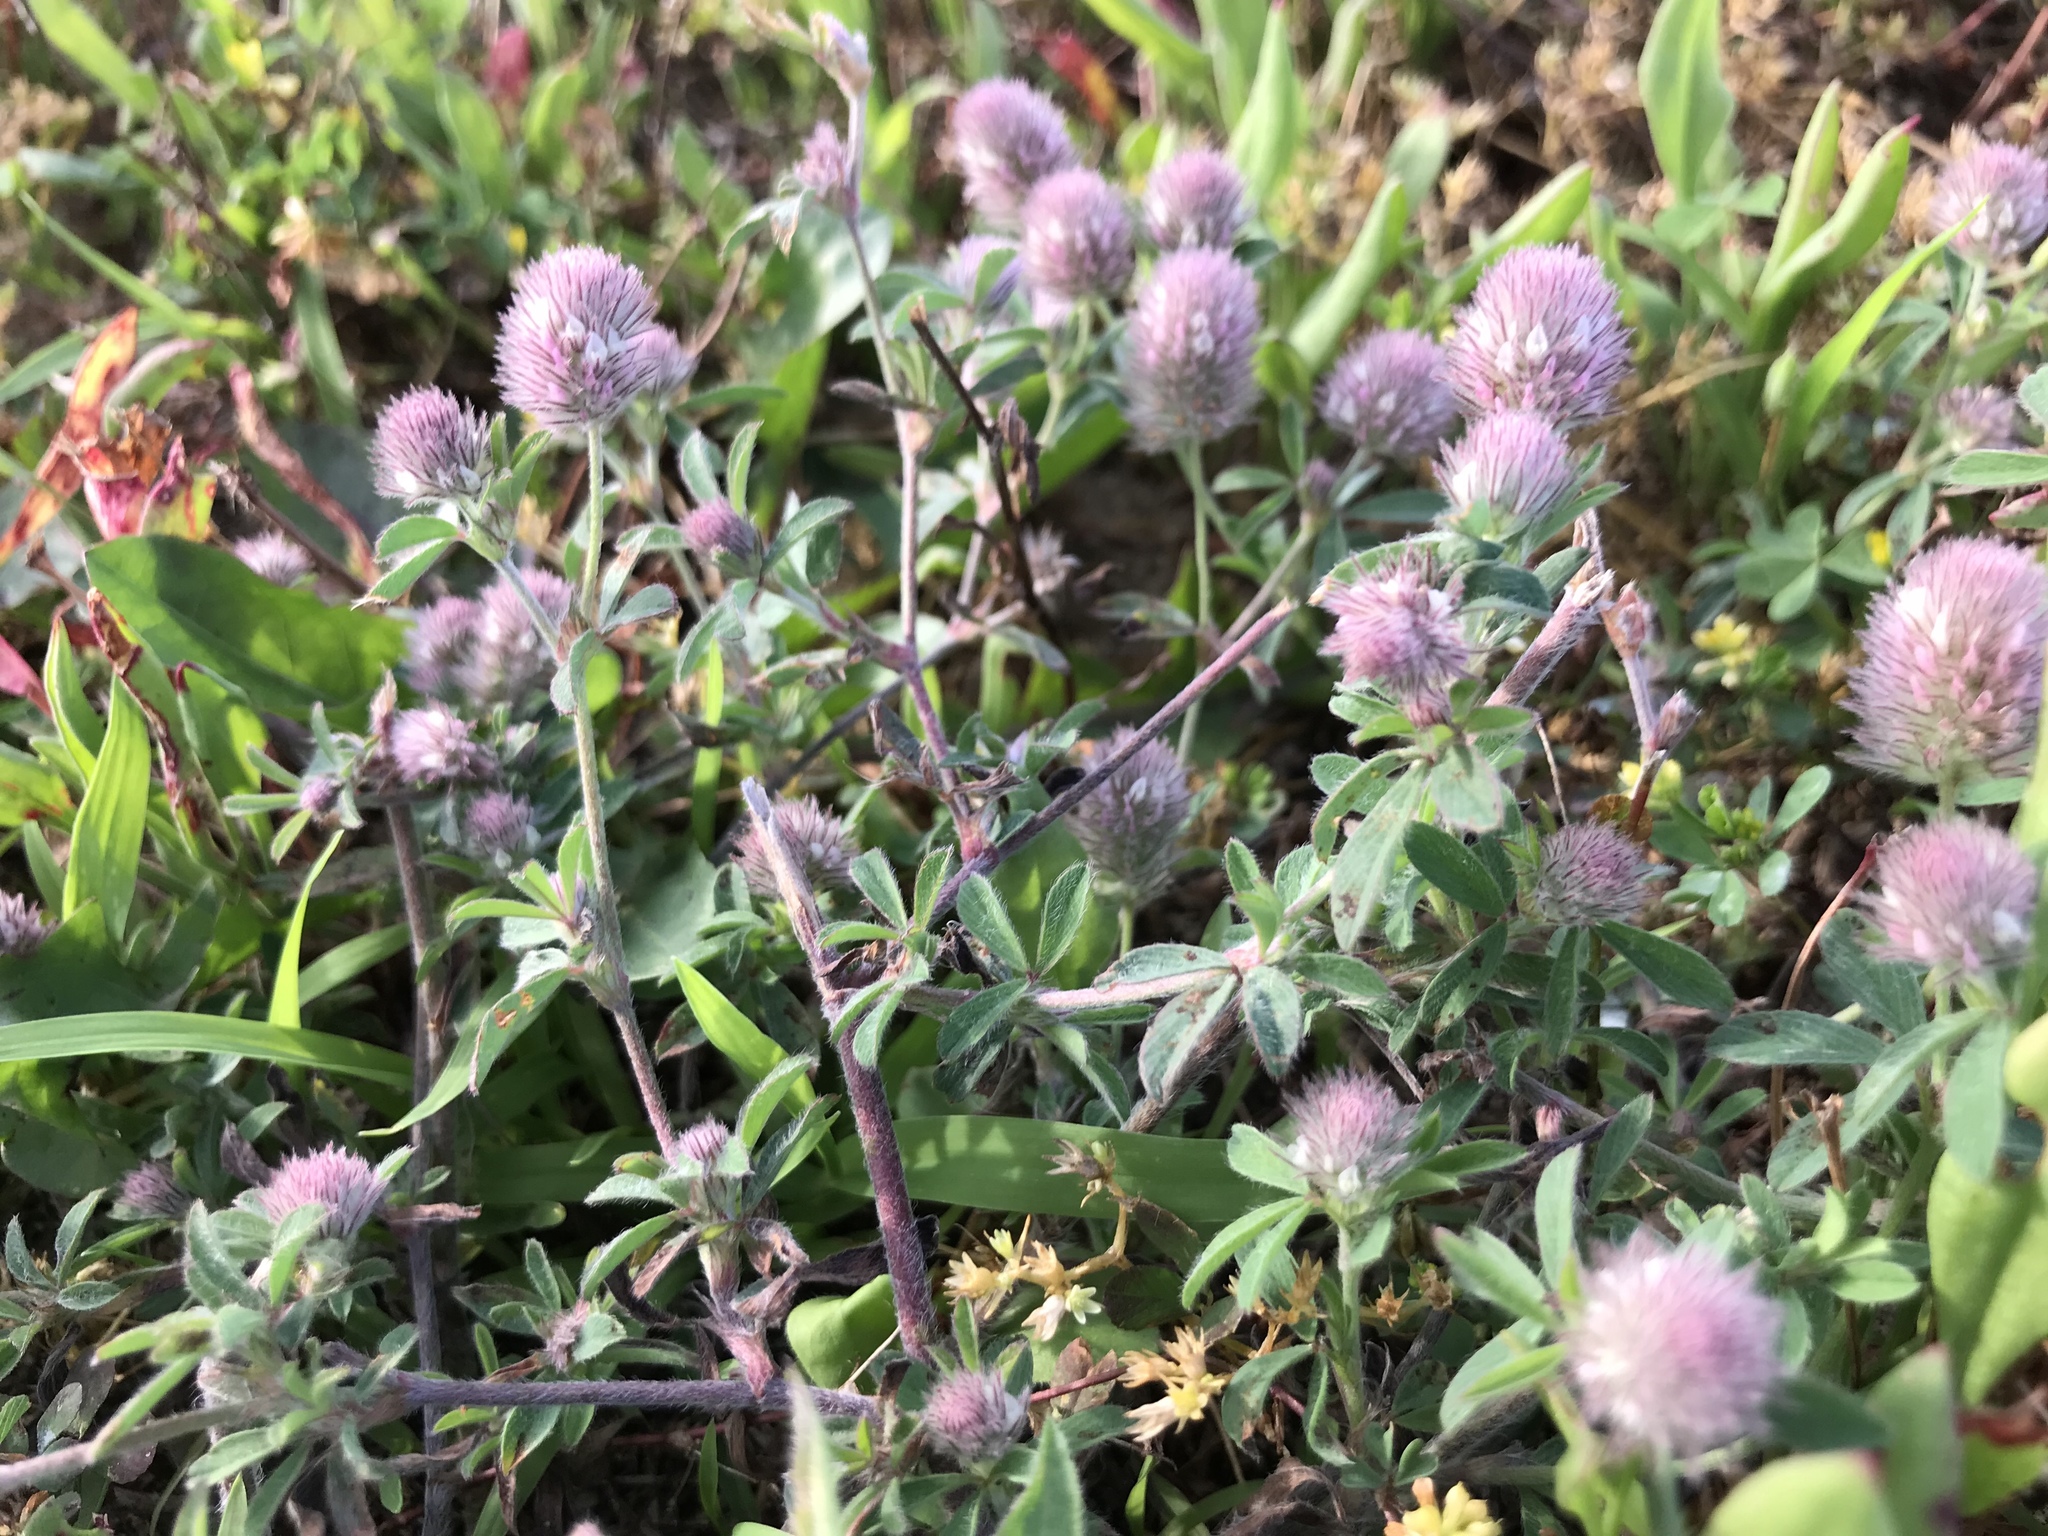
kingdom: Plantae
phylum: Tracheophyta
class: Magnoliopsida
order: Fabales
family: Fabaceae
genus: Trifolium
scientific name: Trifolium arvense
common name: Hare's-foot clover
